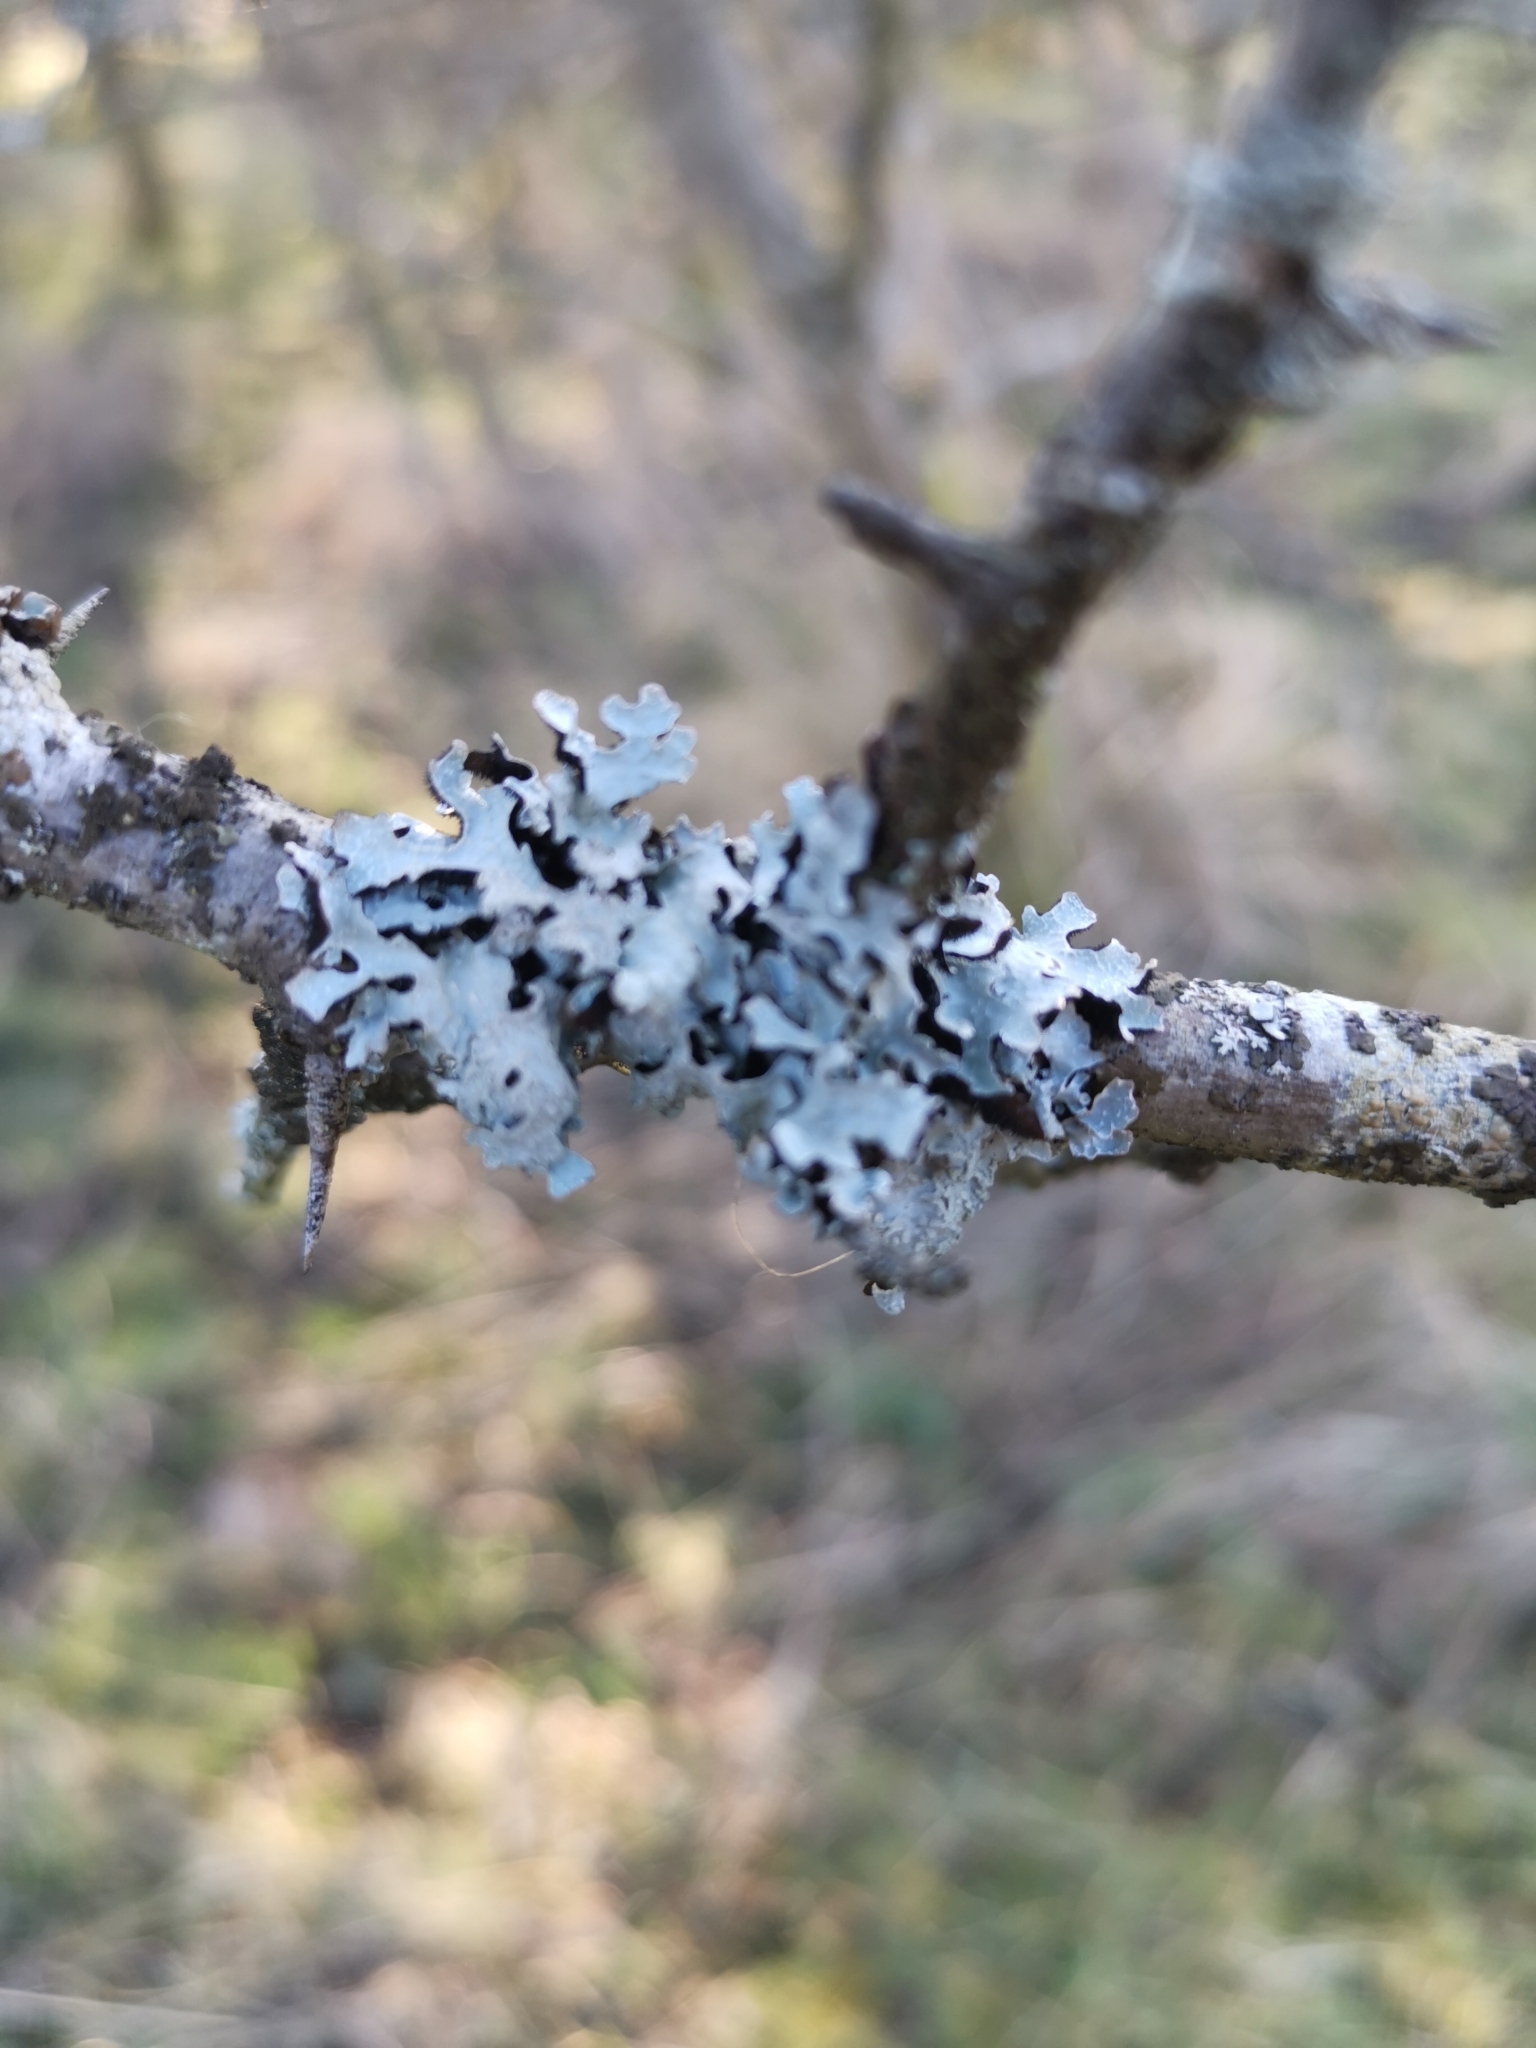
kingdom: Fungi
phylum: Ascomycota
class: Lecanoromycetes
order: Lecanorales
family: Parmeliaceae
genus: Hypogymnia
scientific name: Hypogymnia physodes
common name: Dark crottle
